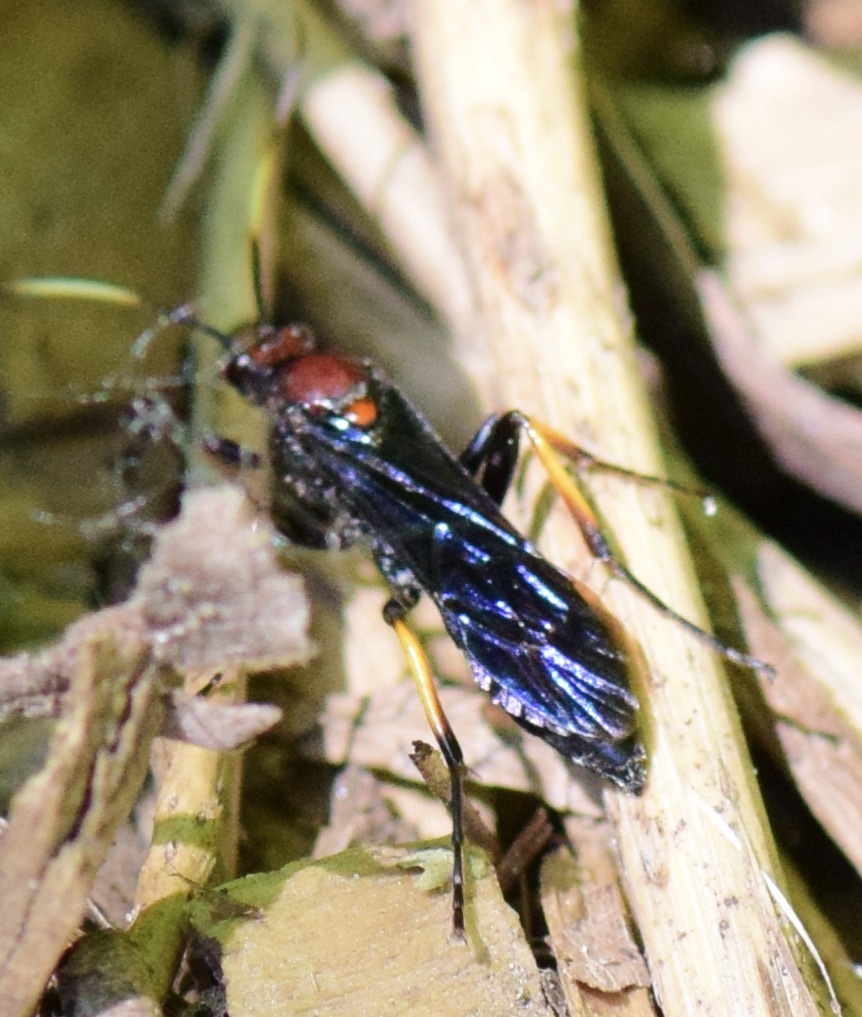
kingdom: Animalia
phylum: Arthropoda
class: Insecta
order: Hymenoptera
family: Ichneumonidae
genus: Ichneumon
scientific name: Ichneumon centrator
